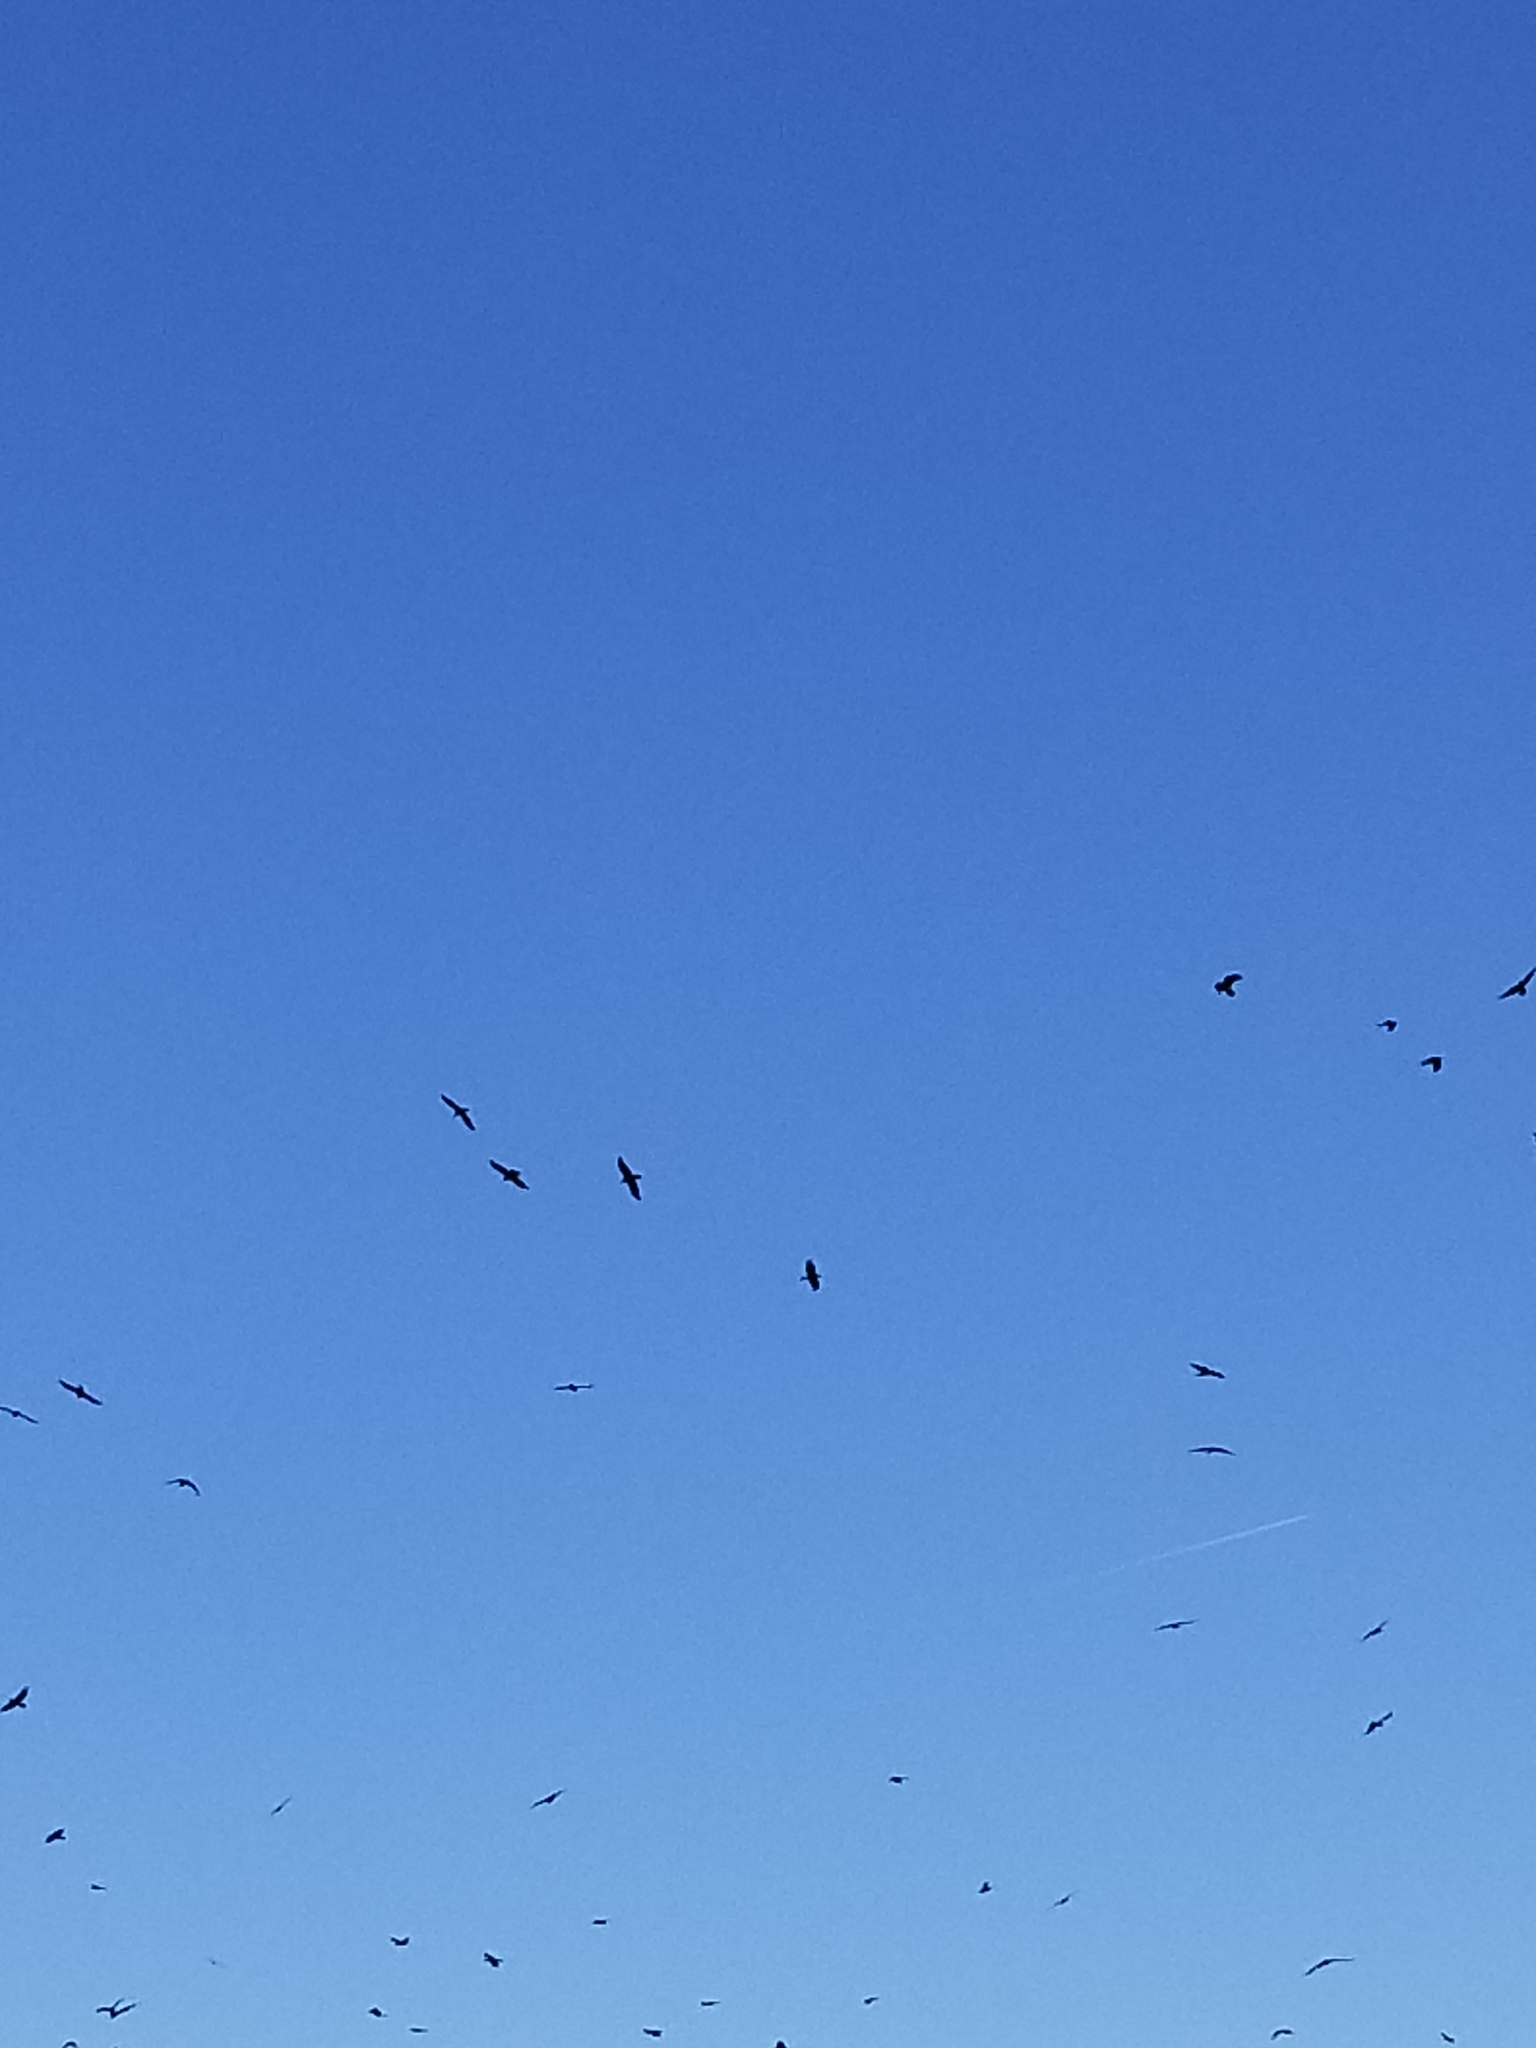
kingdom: Animalia
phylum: Chordata
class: Aves
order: Passeriformes
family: Corvidae
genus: Corvus
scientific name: Corvus corax
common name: Common raven
